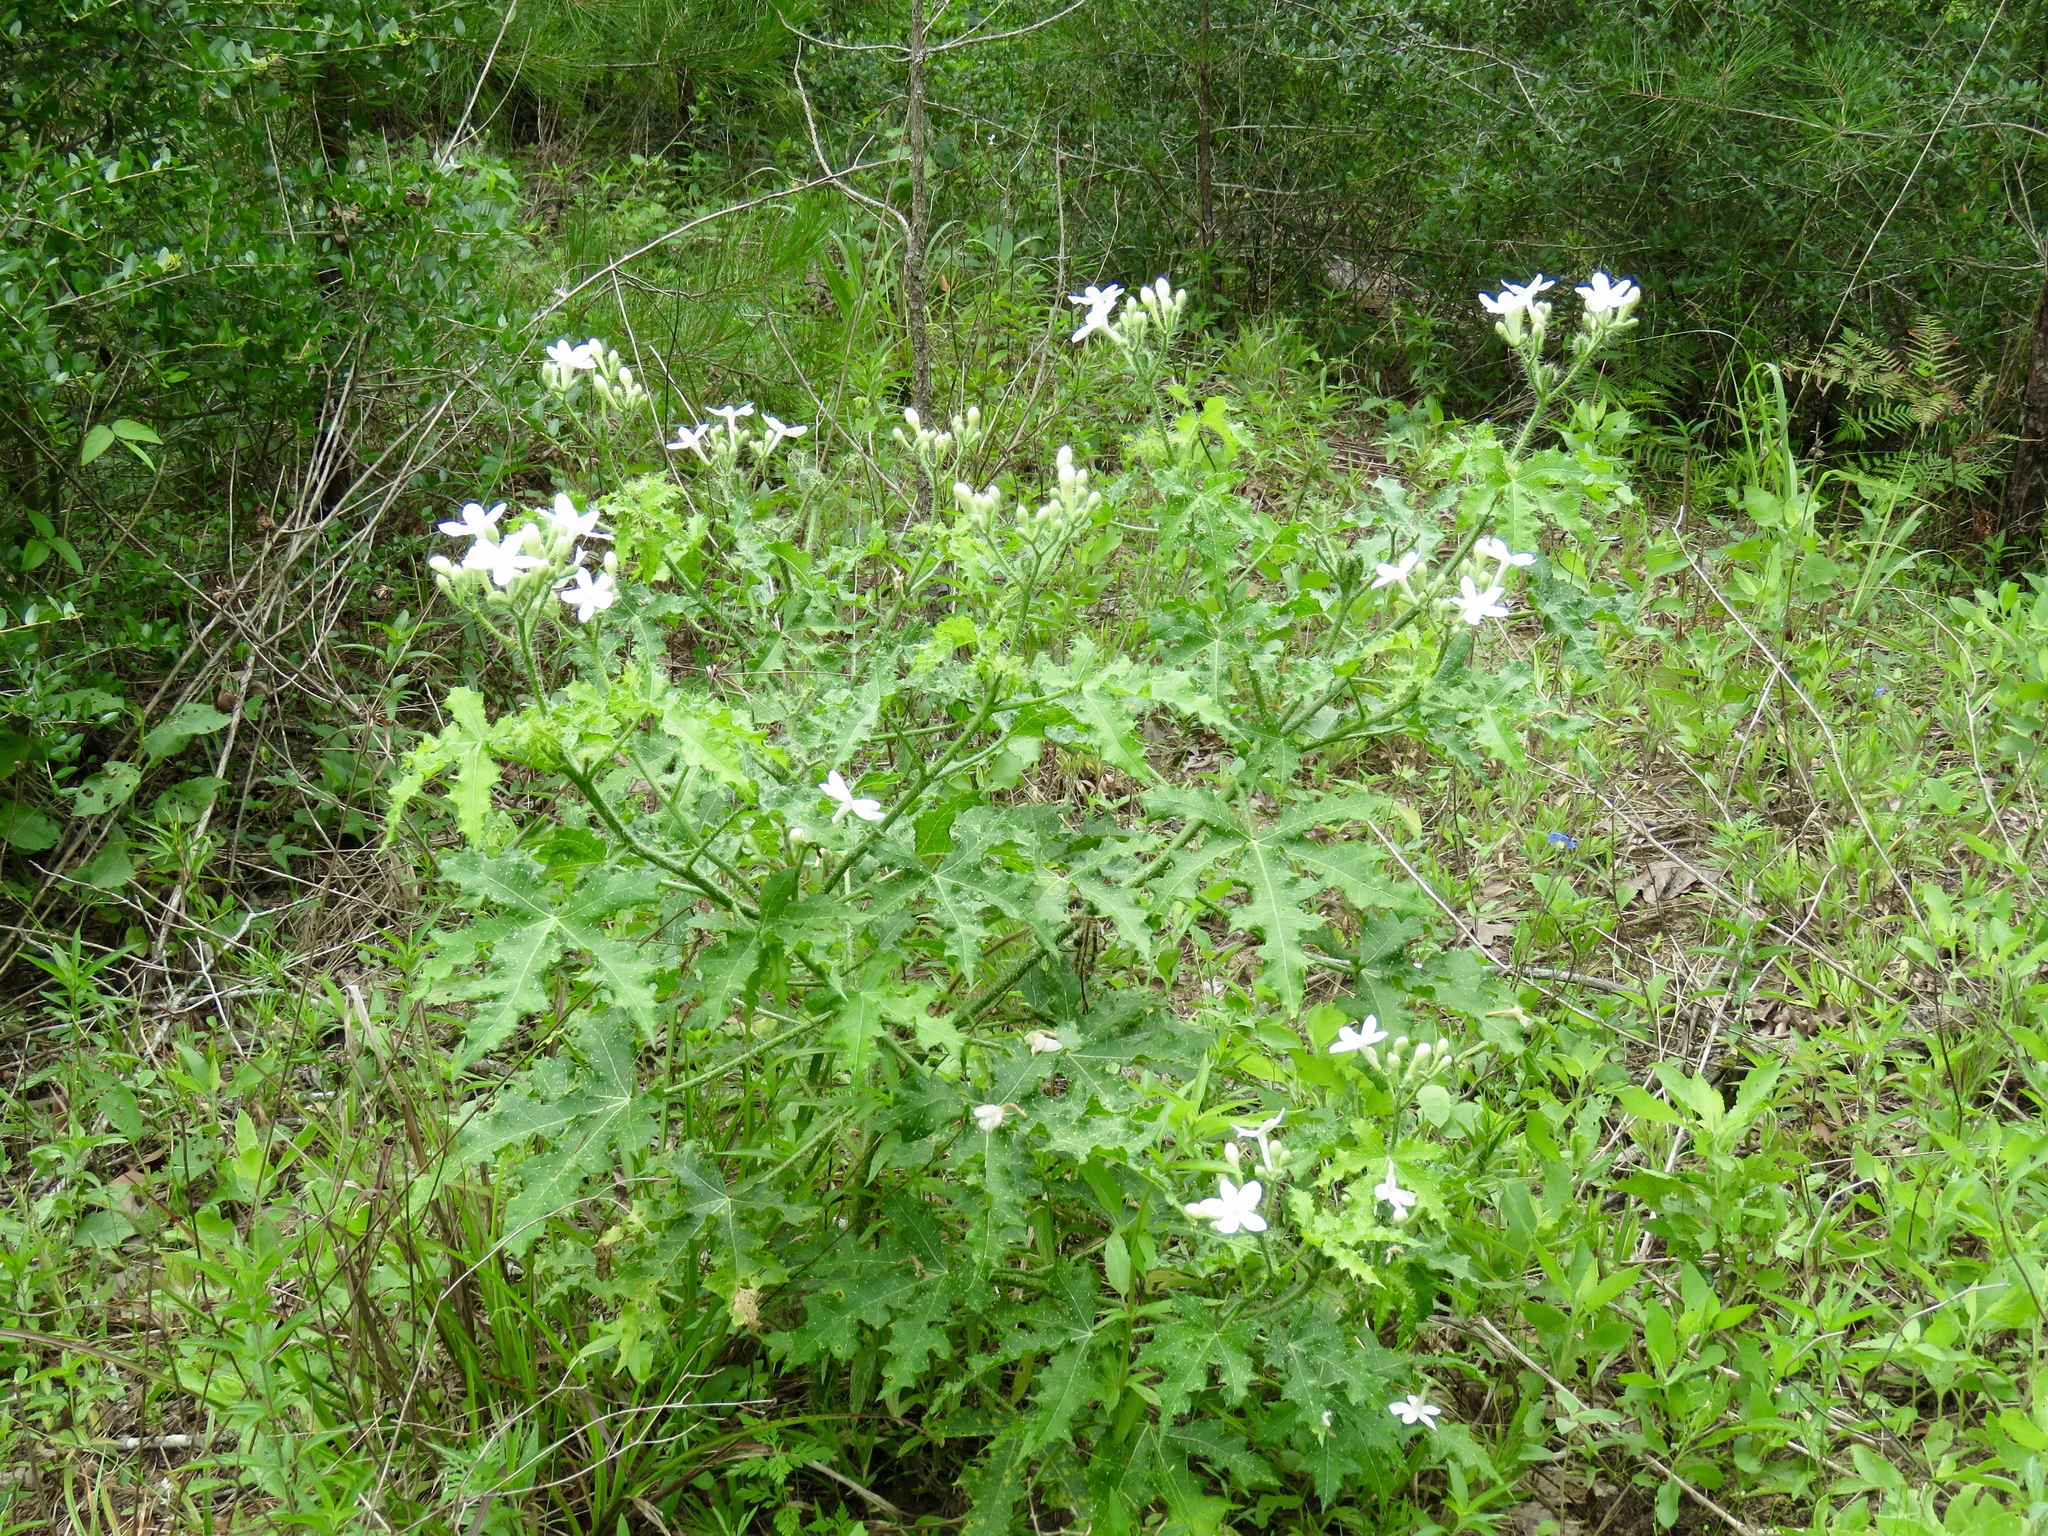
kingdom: Plantae
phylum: Tracheophyta
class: Magnoliopsida
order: Malpighiales
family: Euphorbiaceae
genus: Cnidoscolus
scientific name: Cnidoscolus texanus
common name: Texas bull-nettle
